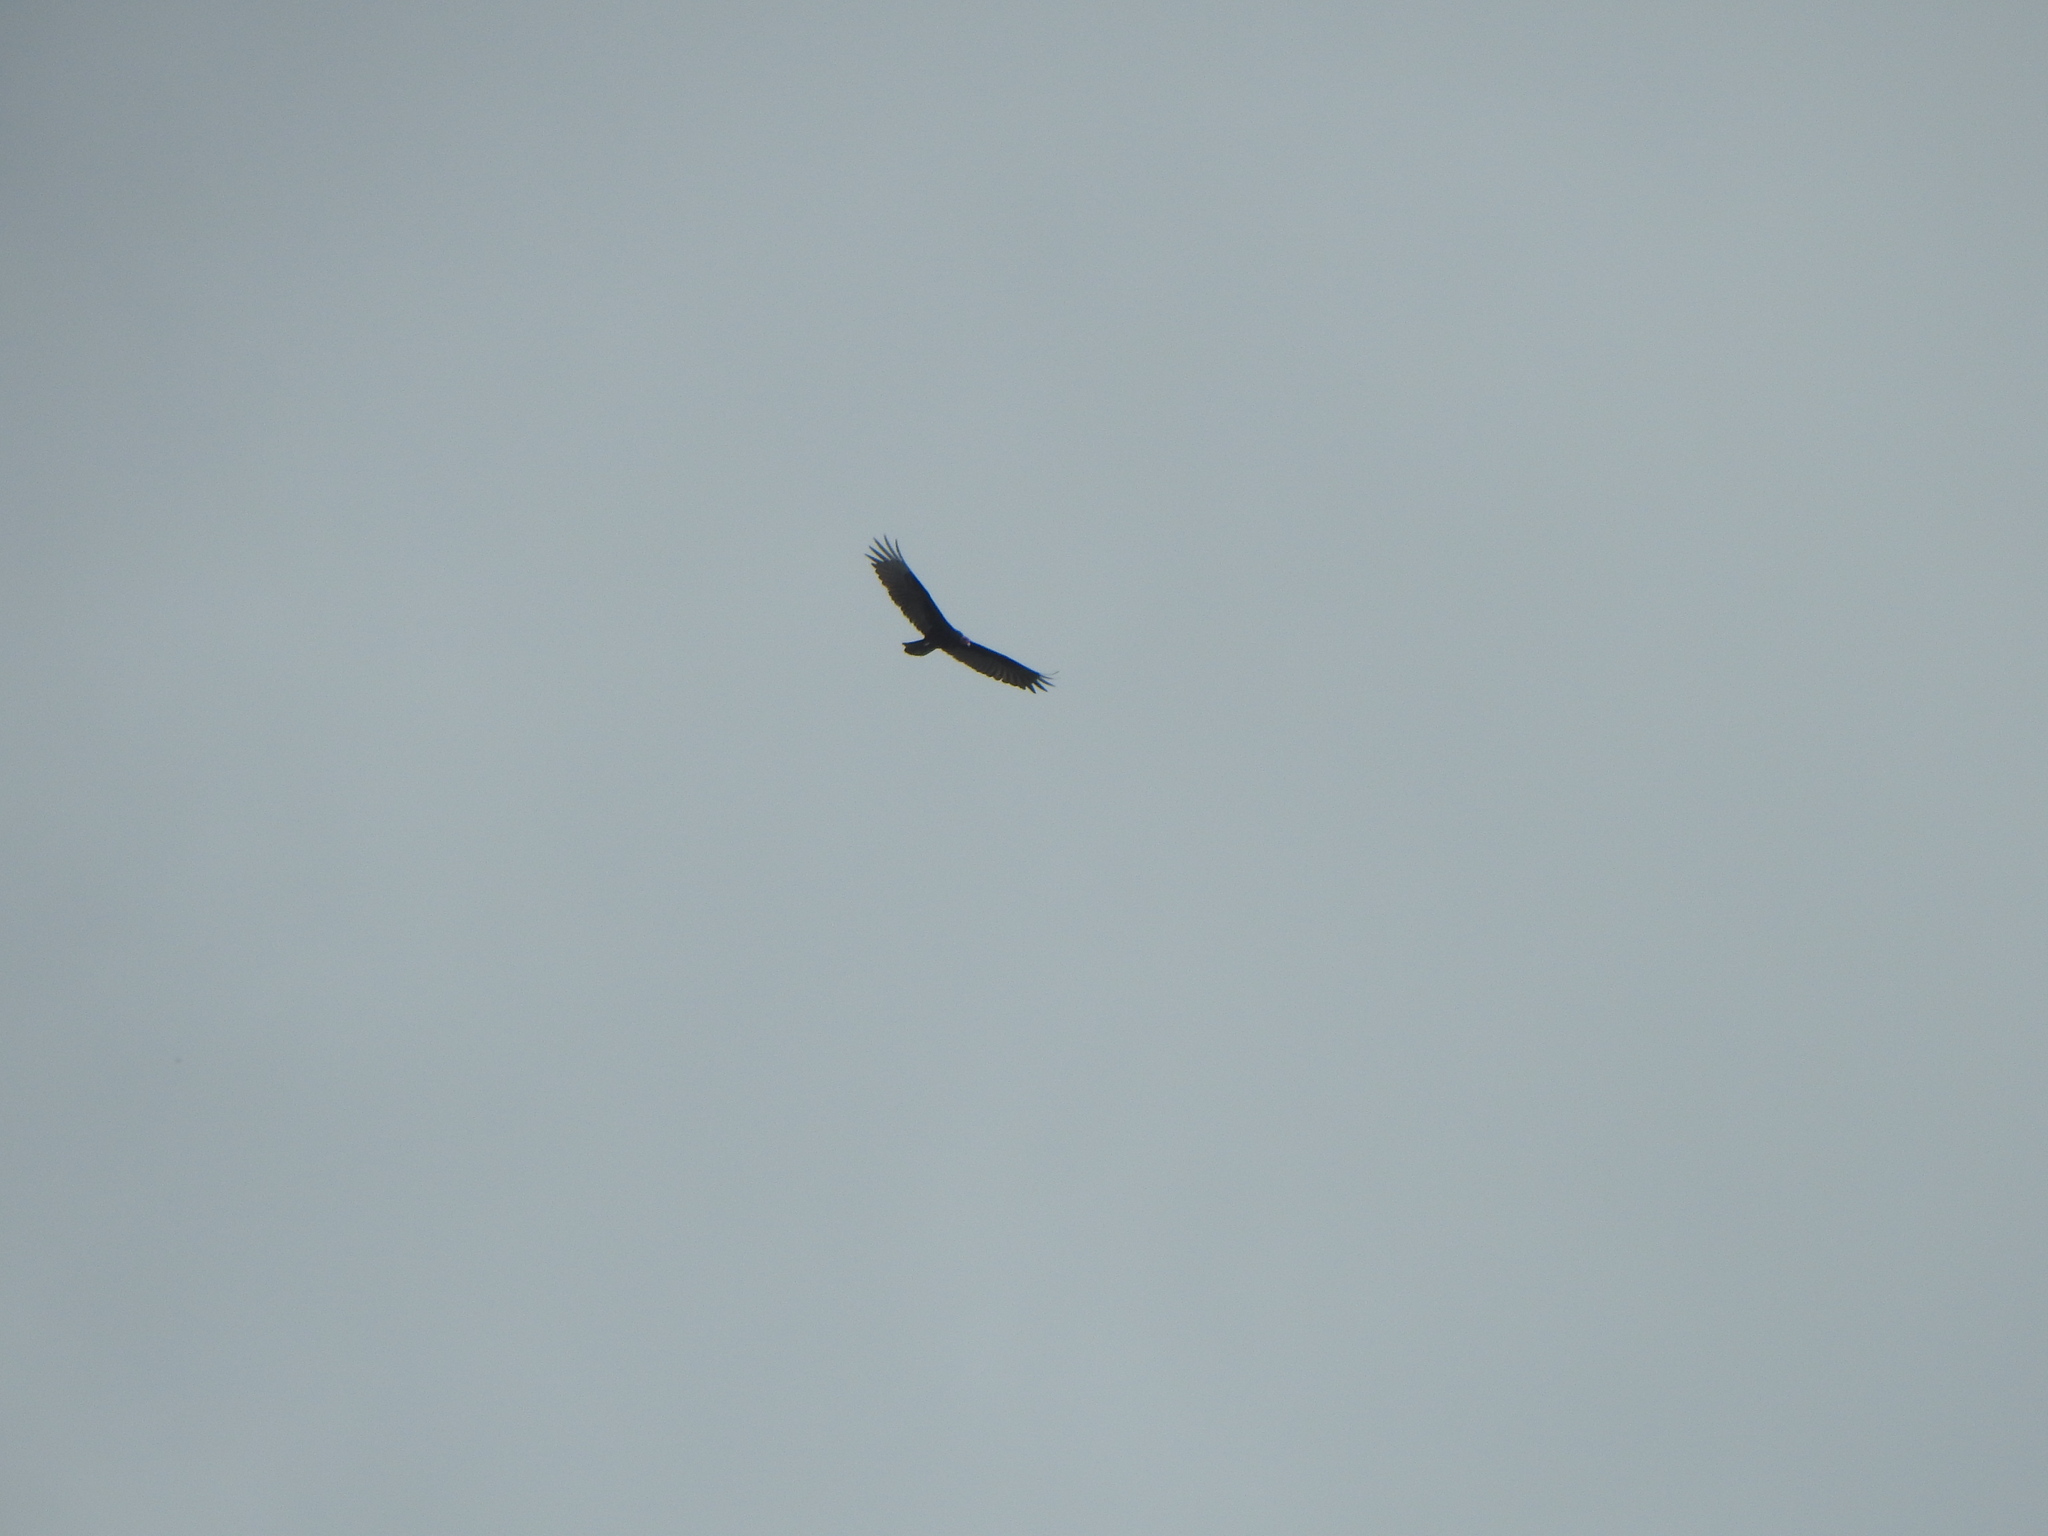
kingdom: Animalia
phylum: Chordata
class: Aves
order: Accipitriformes
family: Cathartidae
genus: Cathartes
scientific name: Cathartes aura
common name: Turkey vulture
